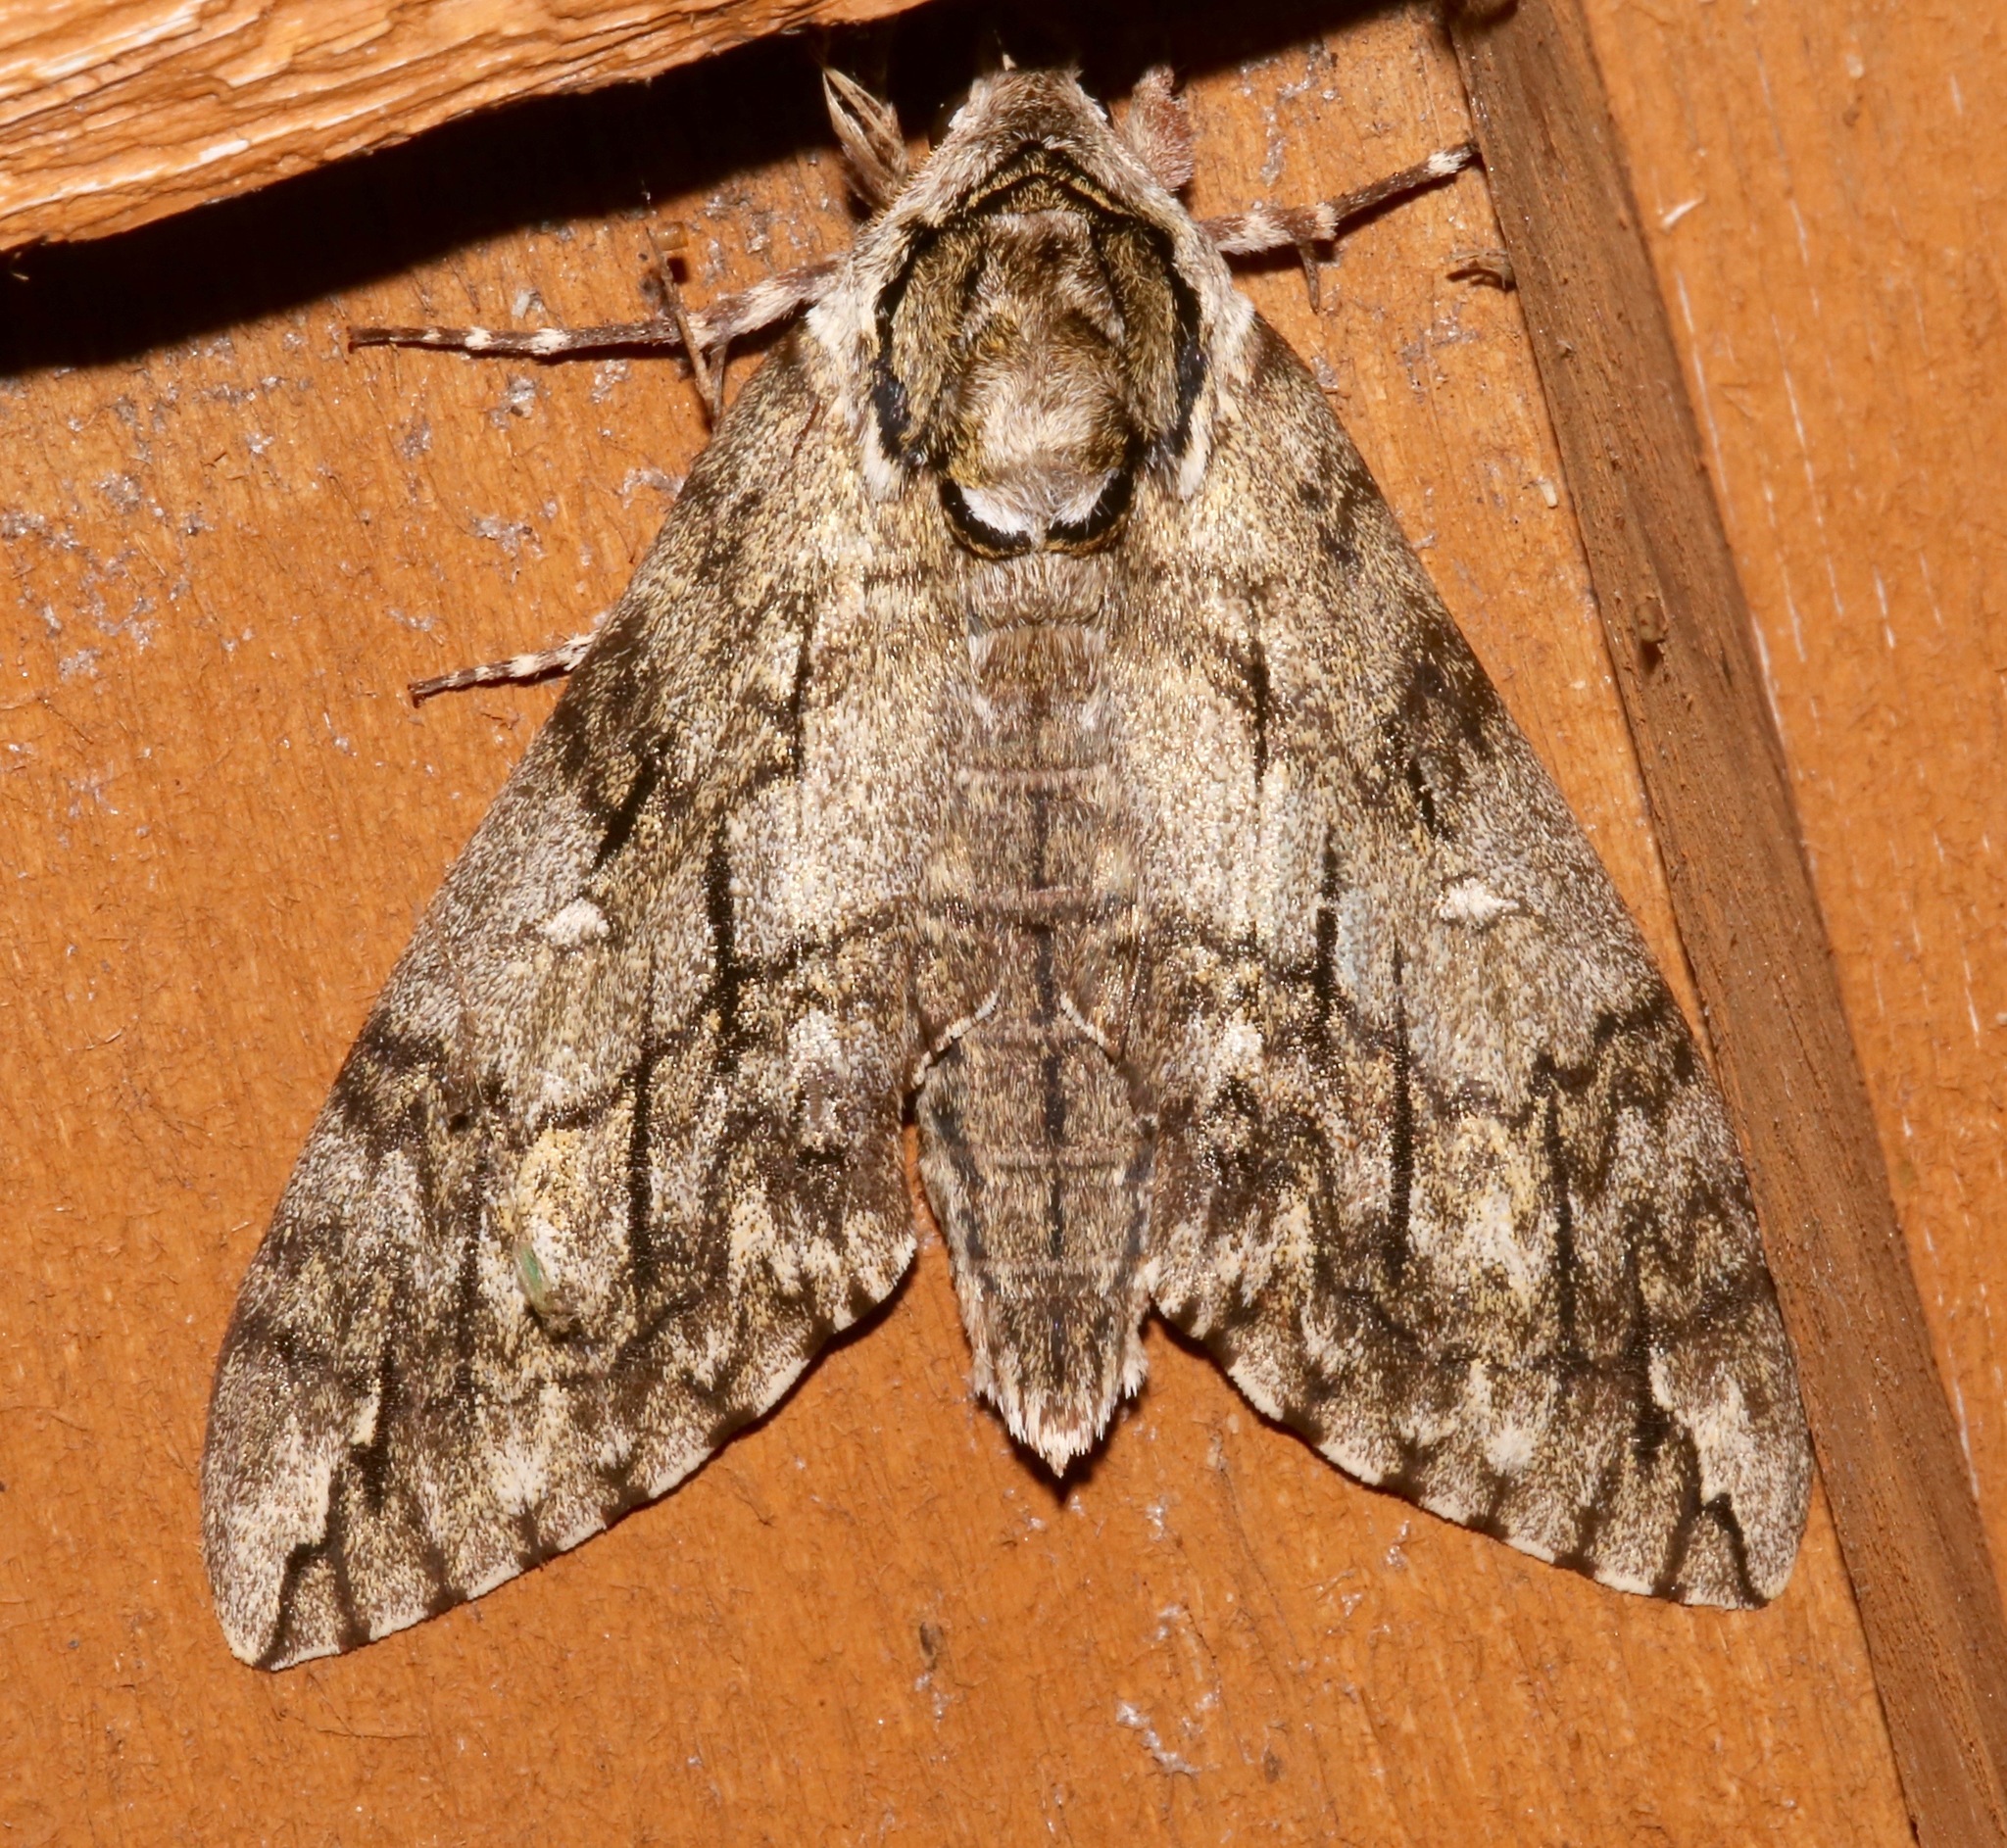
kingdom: Animalia
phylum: Arthropoda
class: Insecta
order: Lepidoptera
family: Sphingidae
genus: Ceratomia
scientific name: Ceratomia undulosa
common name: Waved sphinx
